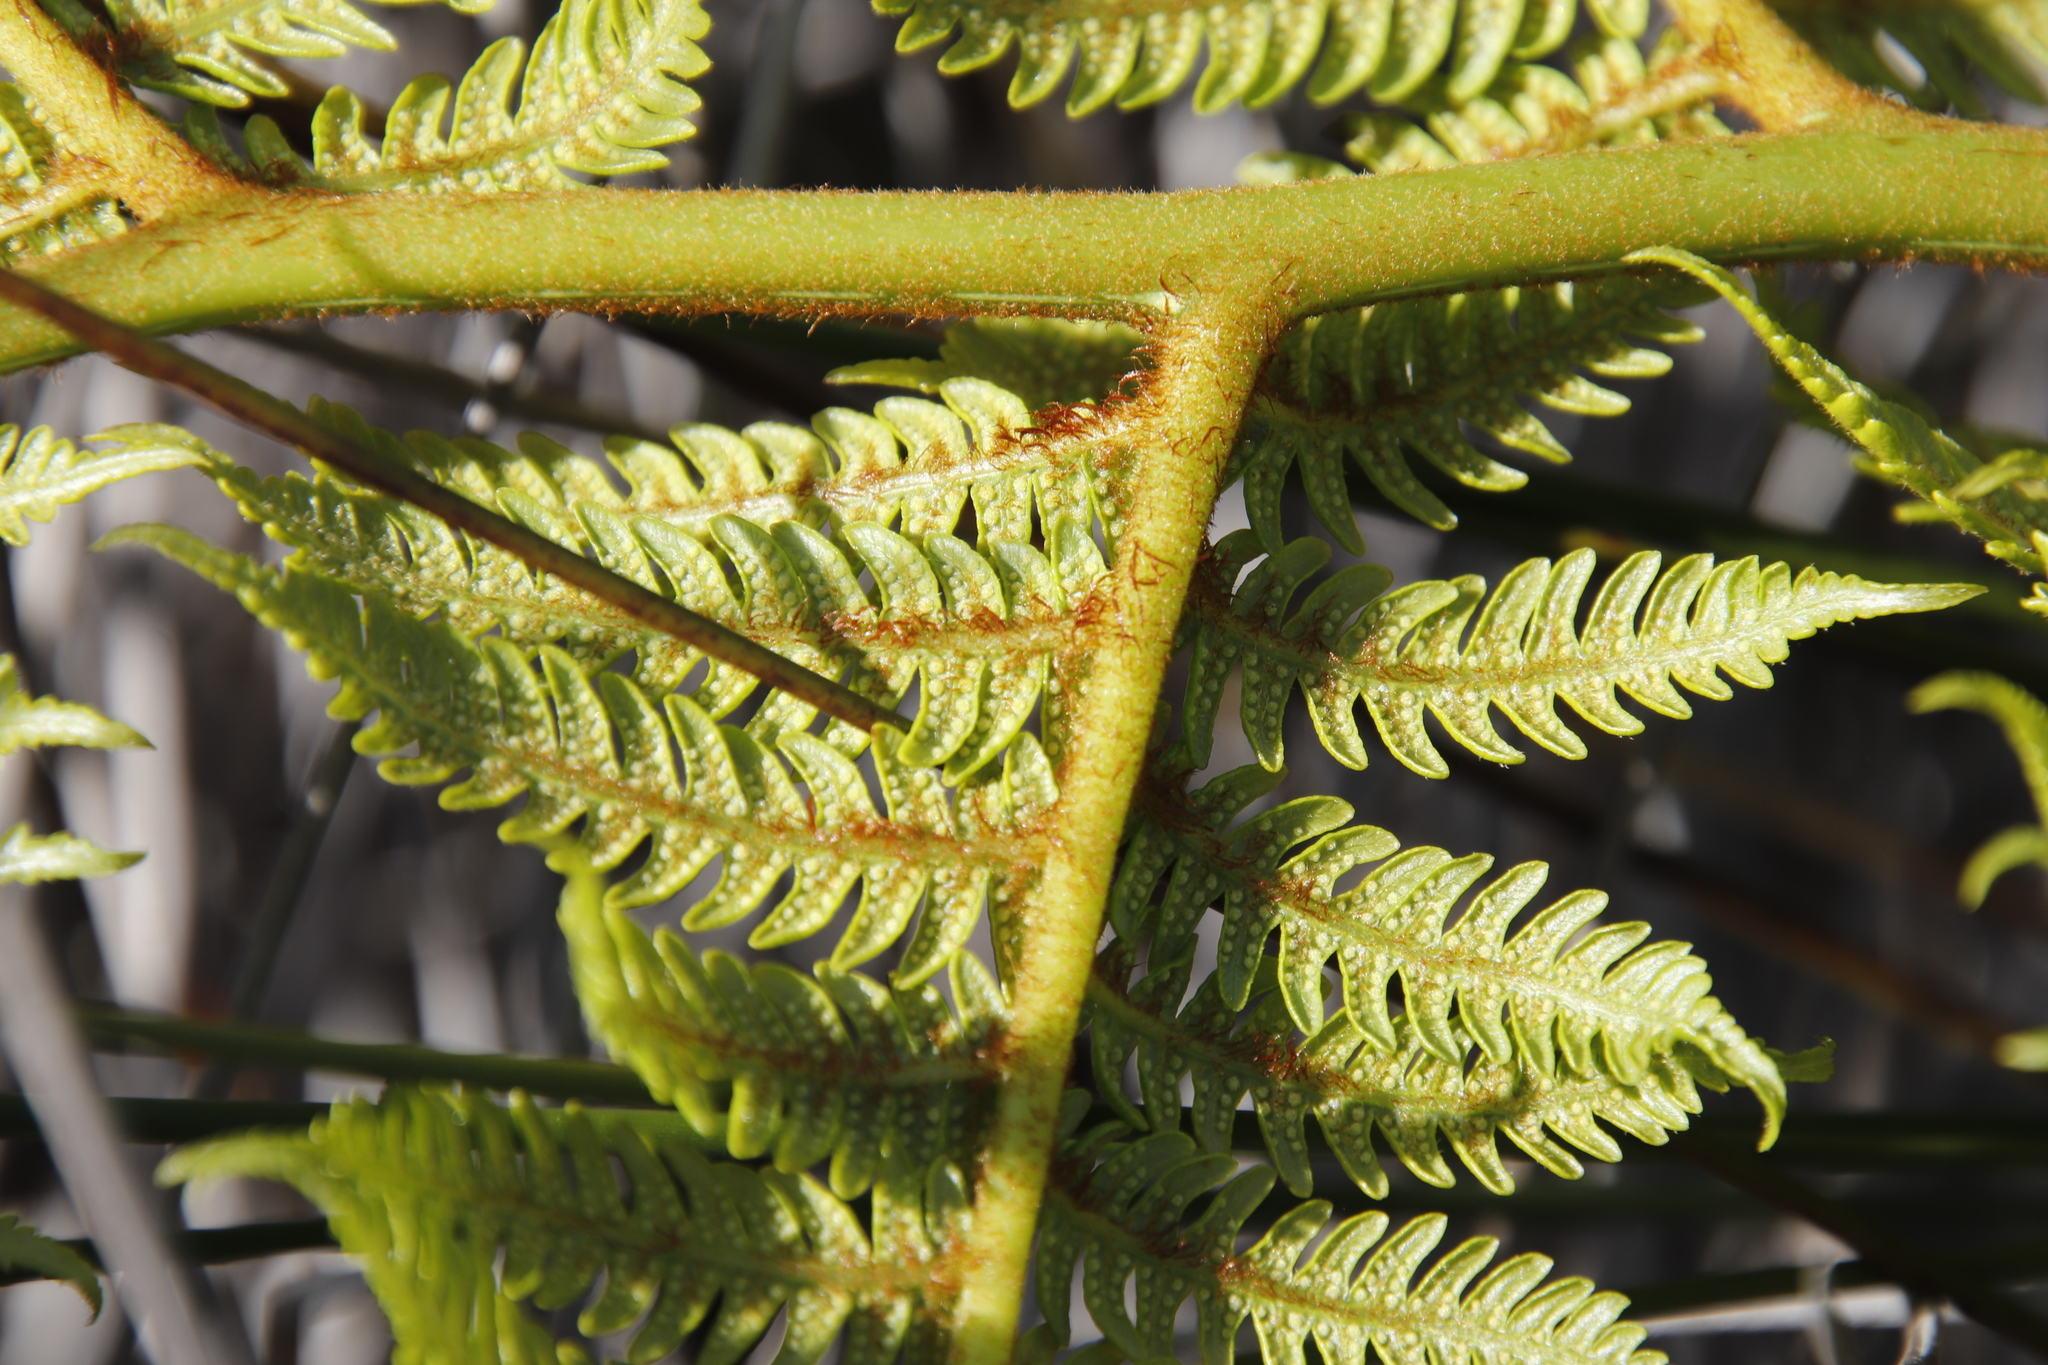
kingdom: Plantae
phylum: Tracheophyta
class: Polypodiopsida
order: Cyatheales
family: Cyatheaceae
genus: Sphaeropteris
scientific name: Sphaeropteris cooperi
